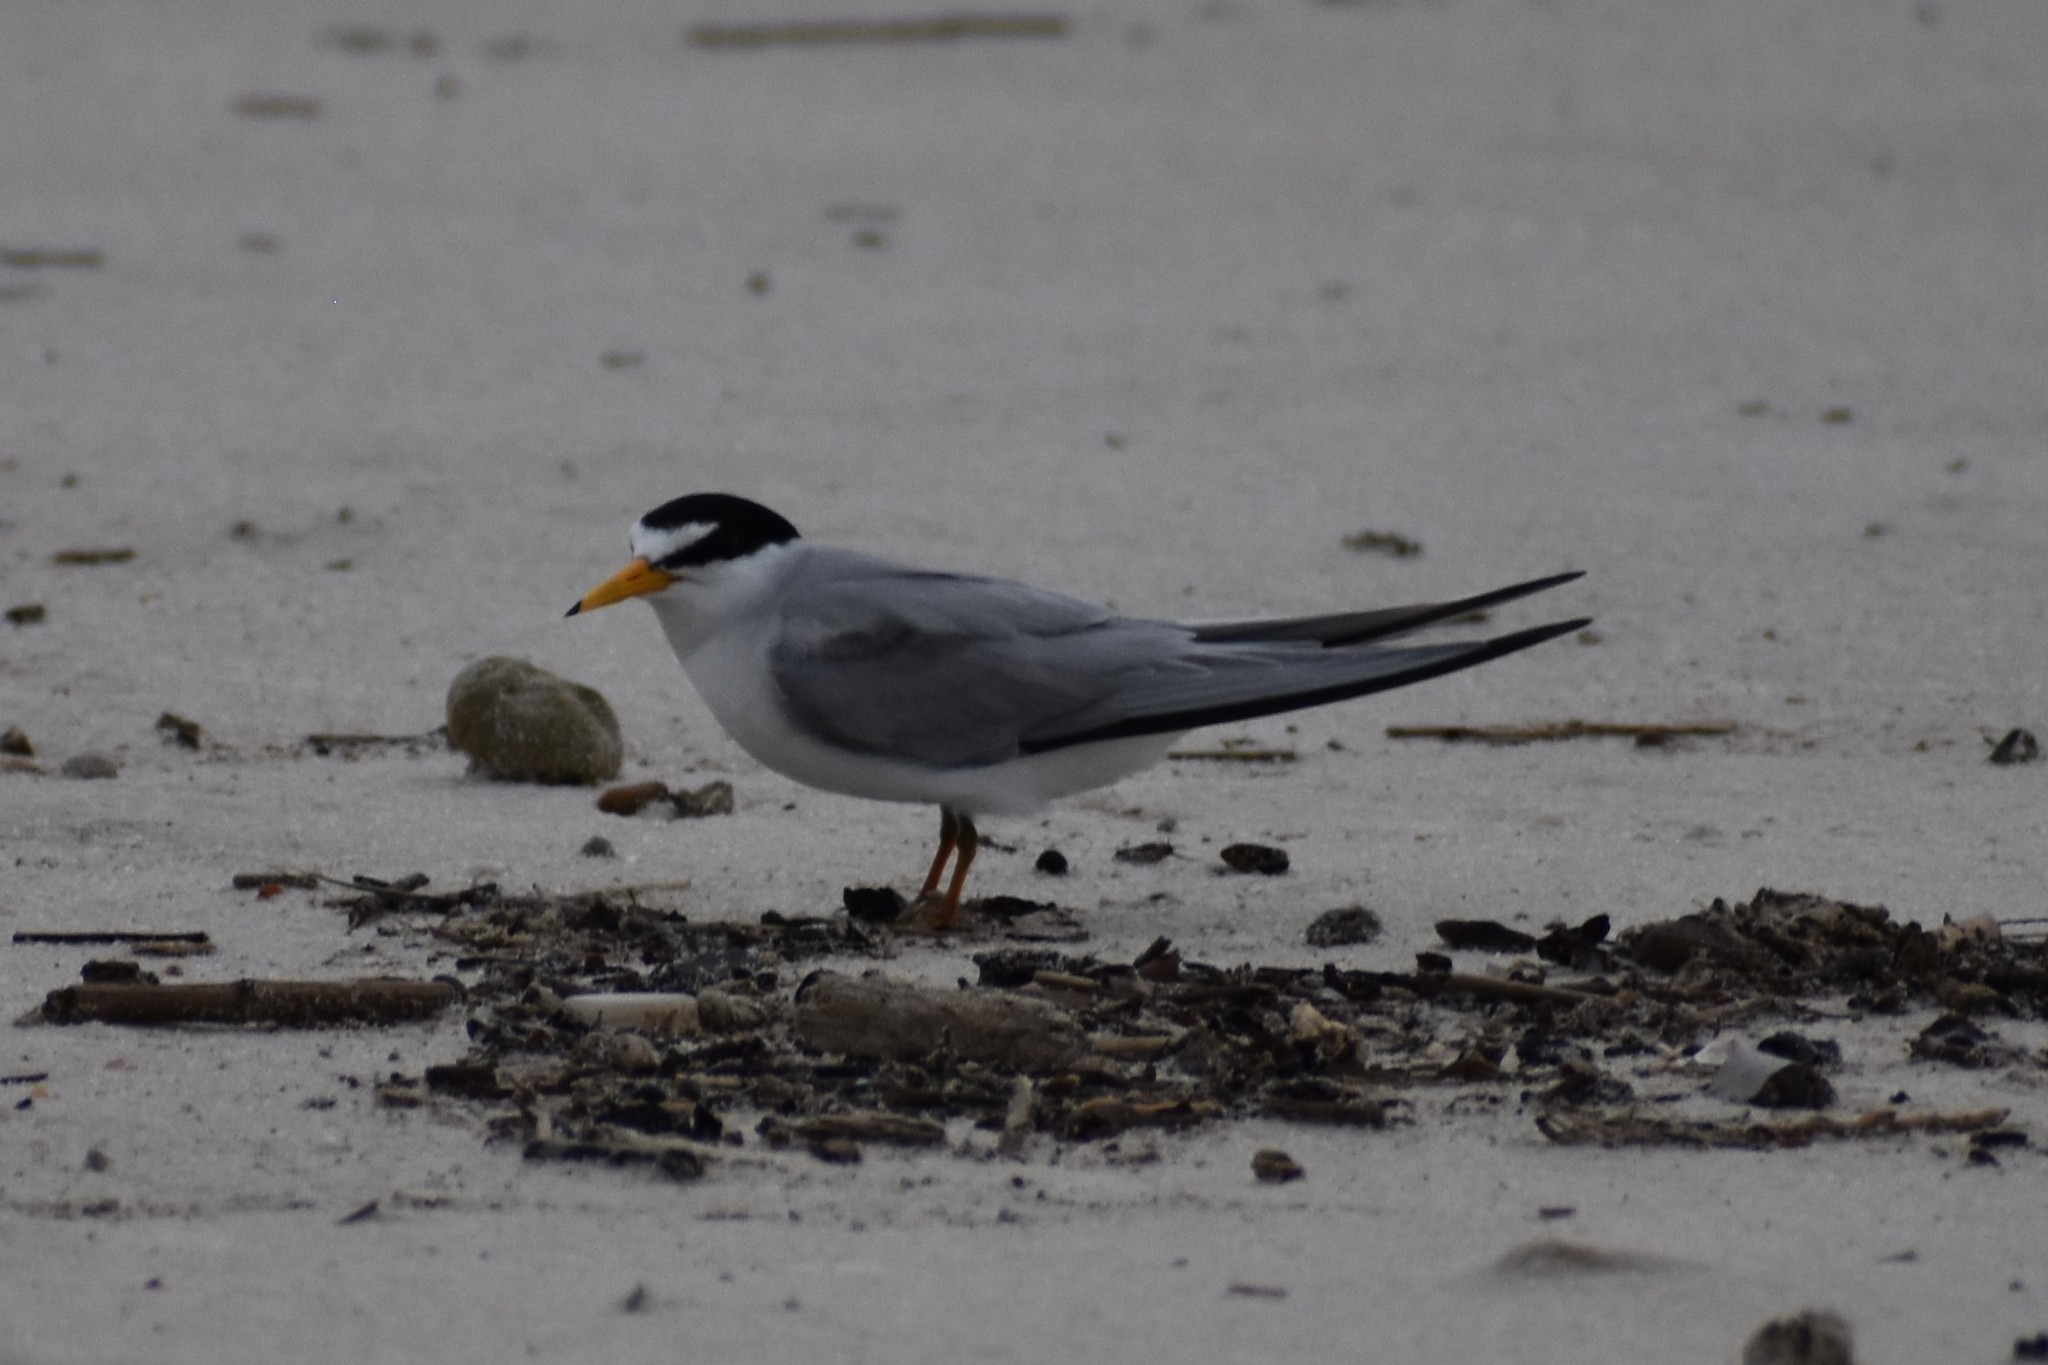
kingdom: Animalia
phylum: Chordata
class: Aves
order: Charadriiformes
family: Laridae
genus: Sternula
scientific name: Sternula antillarum
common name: Least tern
